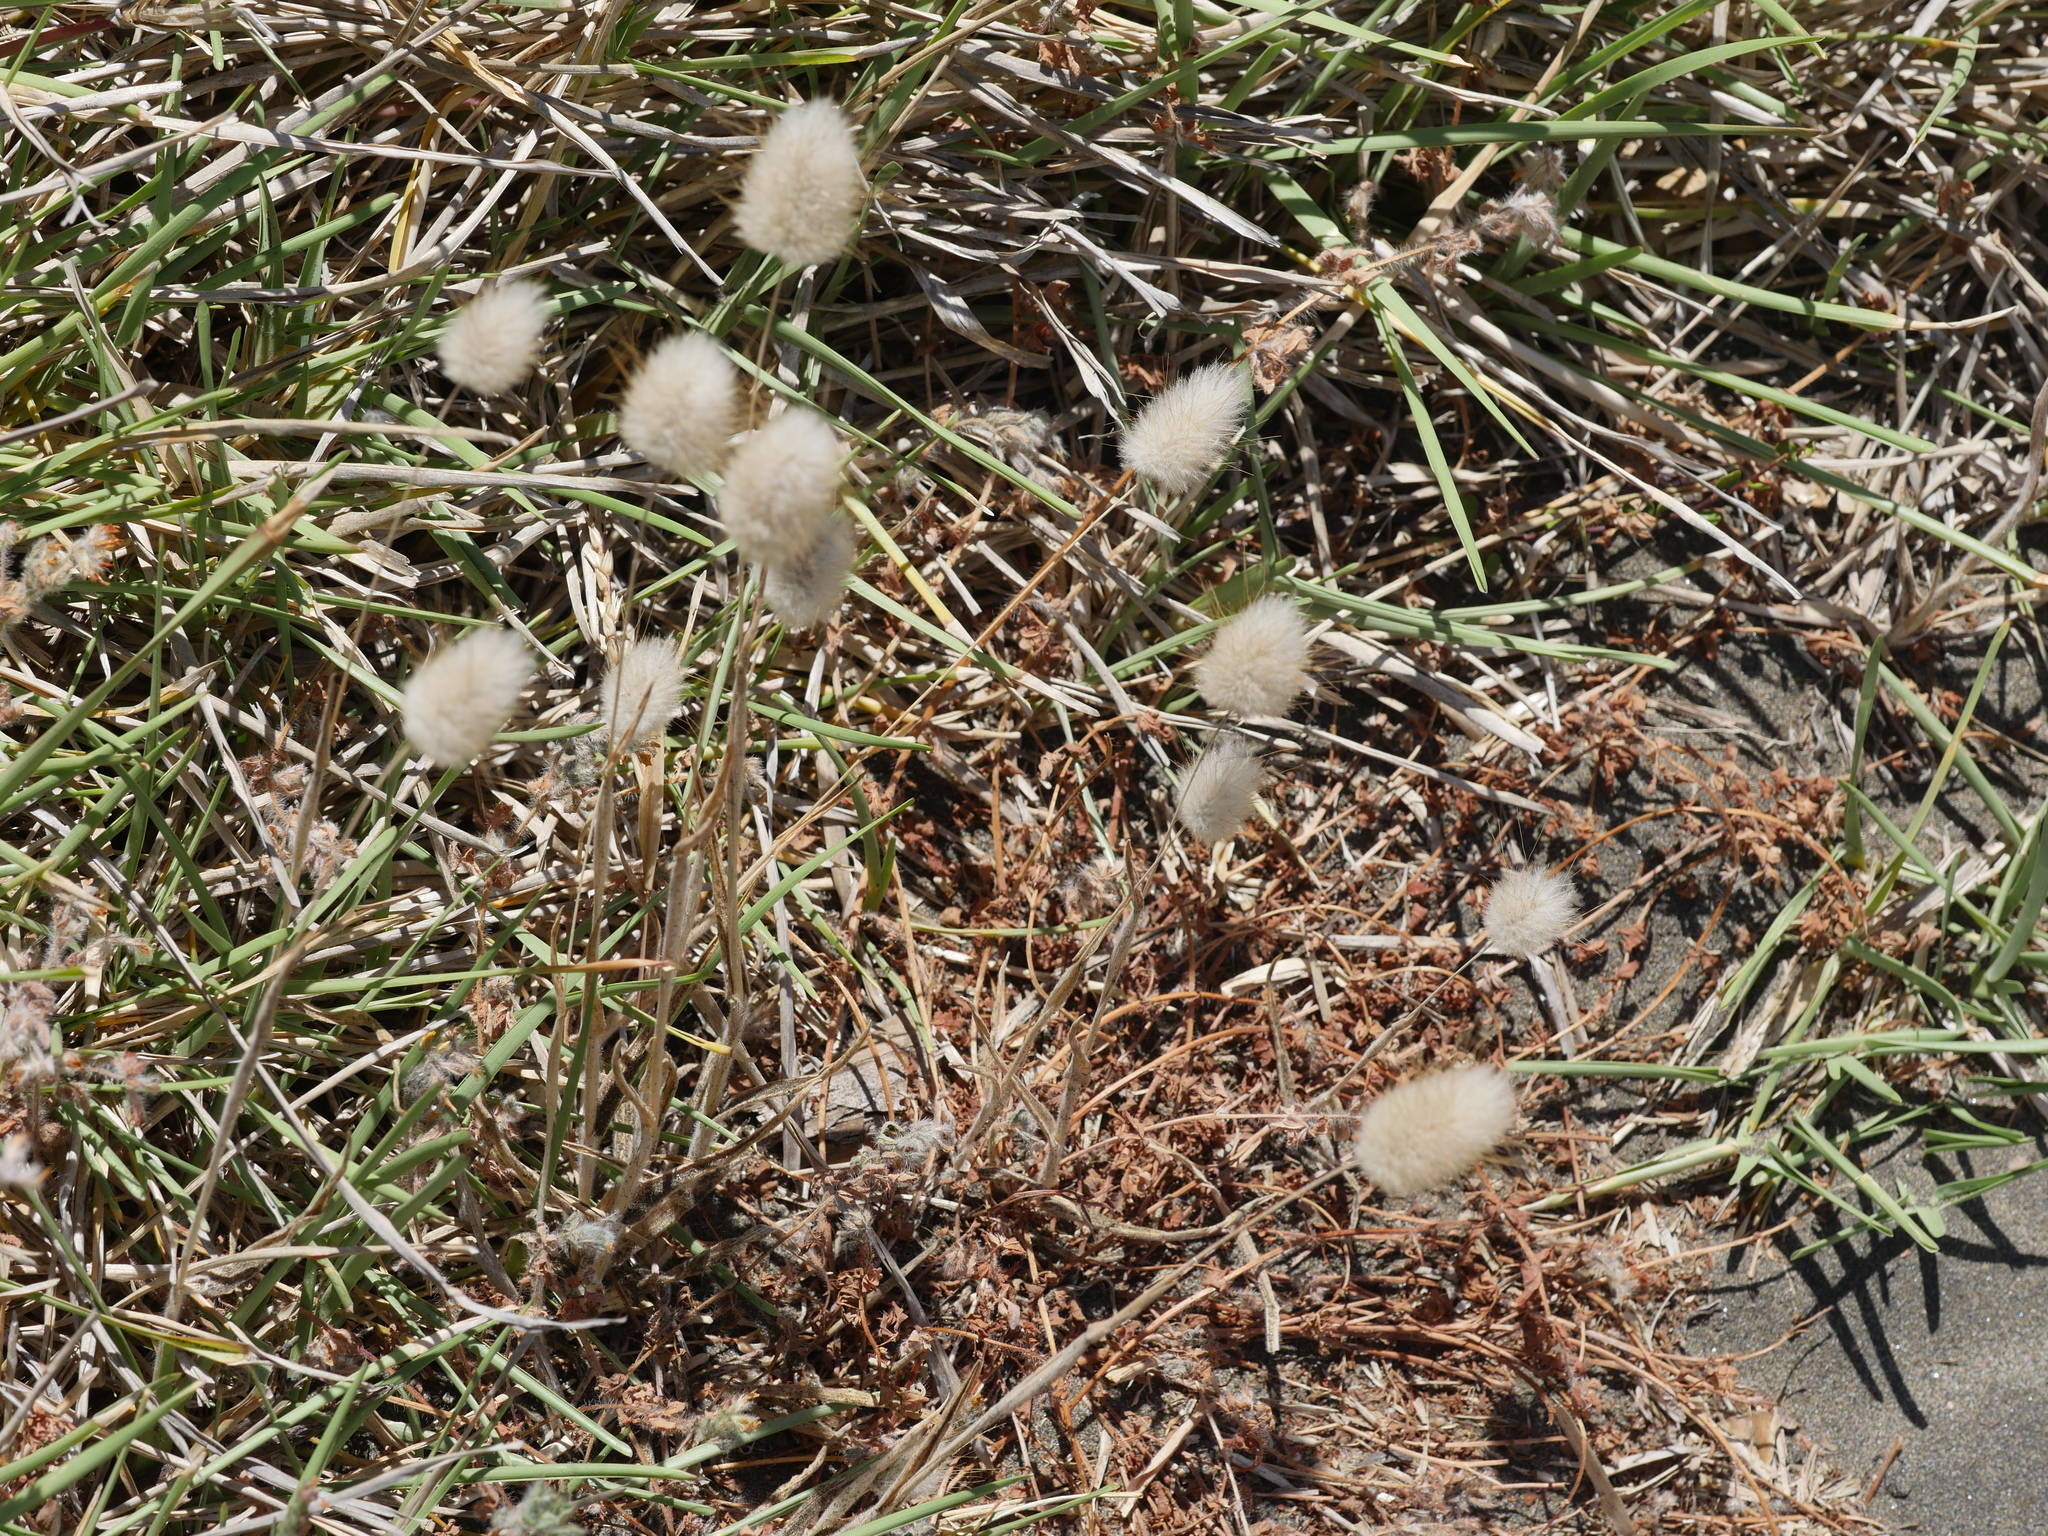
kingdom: Plantae
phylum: Tracheophyta
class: Liliopsida
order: Poales
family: Poaceae
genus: Lagurus
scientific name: Lagurus ovatus
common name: Hare's-tail
